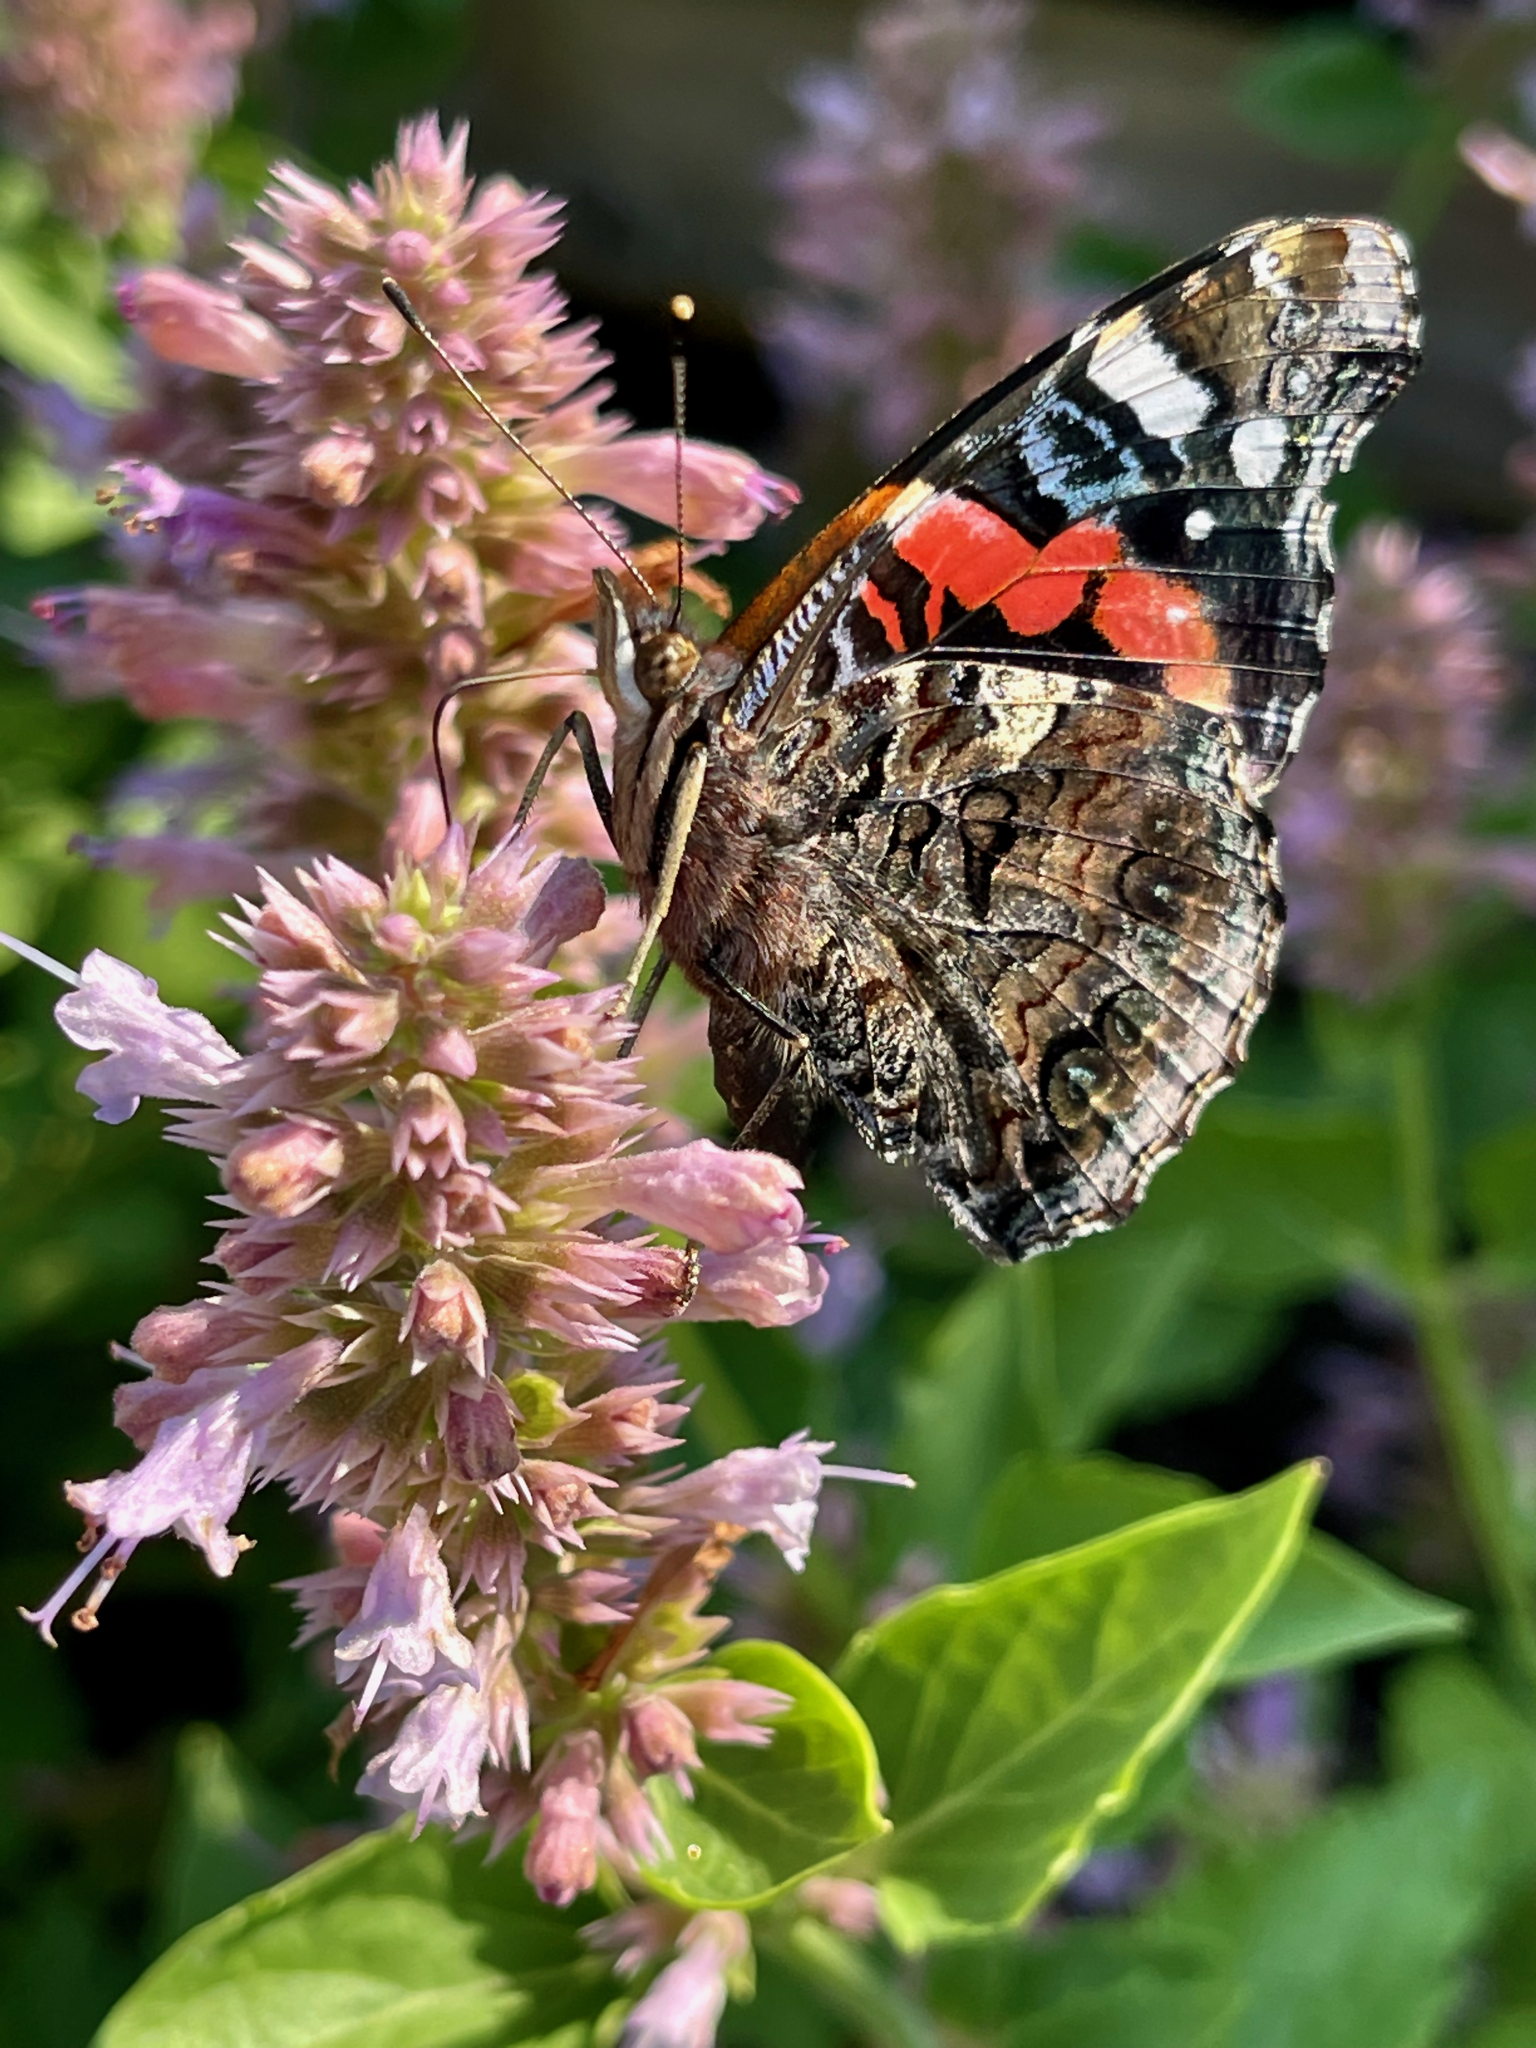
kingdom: Animalia
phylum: Arthropoda
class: Insecta
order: Lepidoptera
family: Nymphalidae
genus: Vanessa
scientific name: Vanessa atalanta
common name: Red admiral
